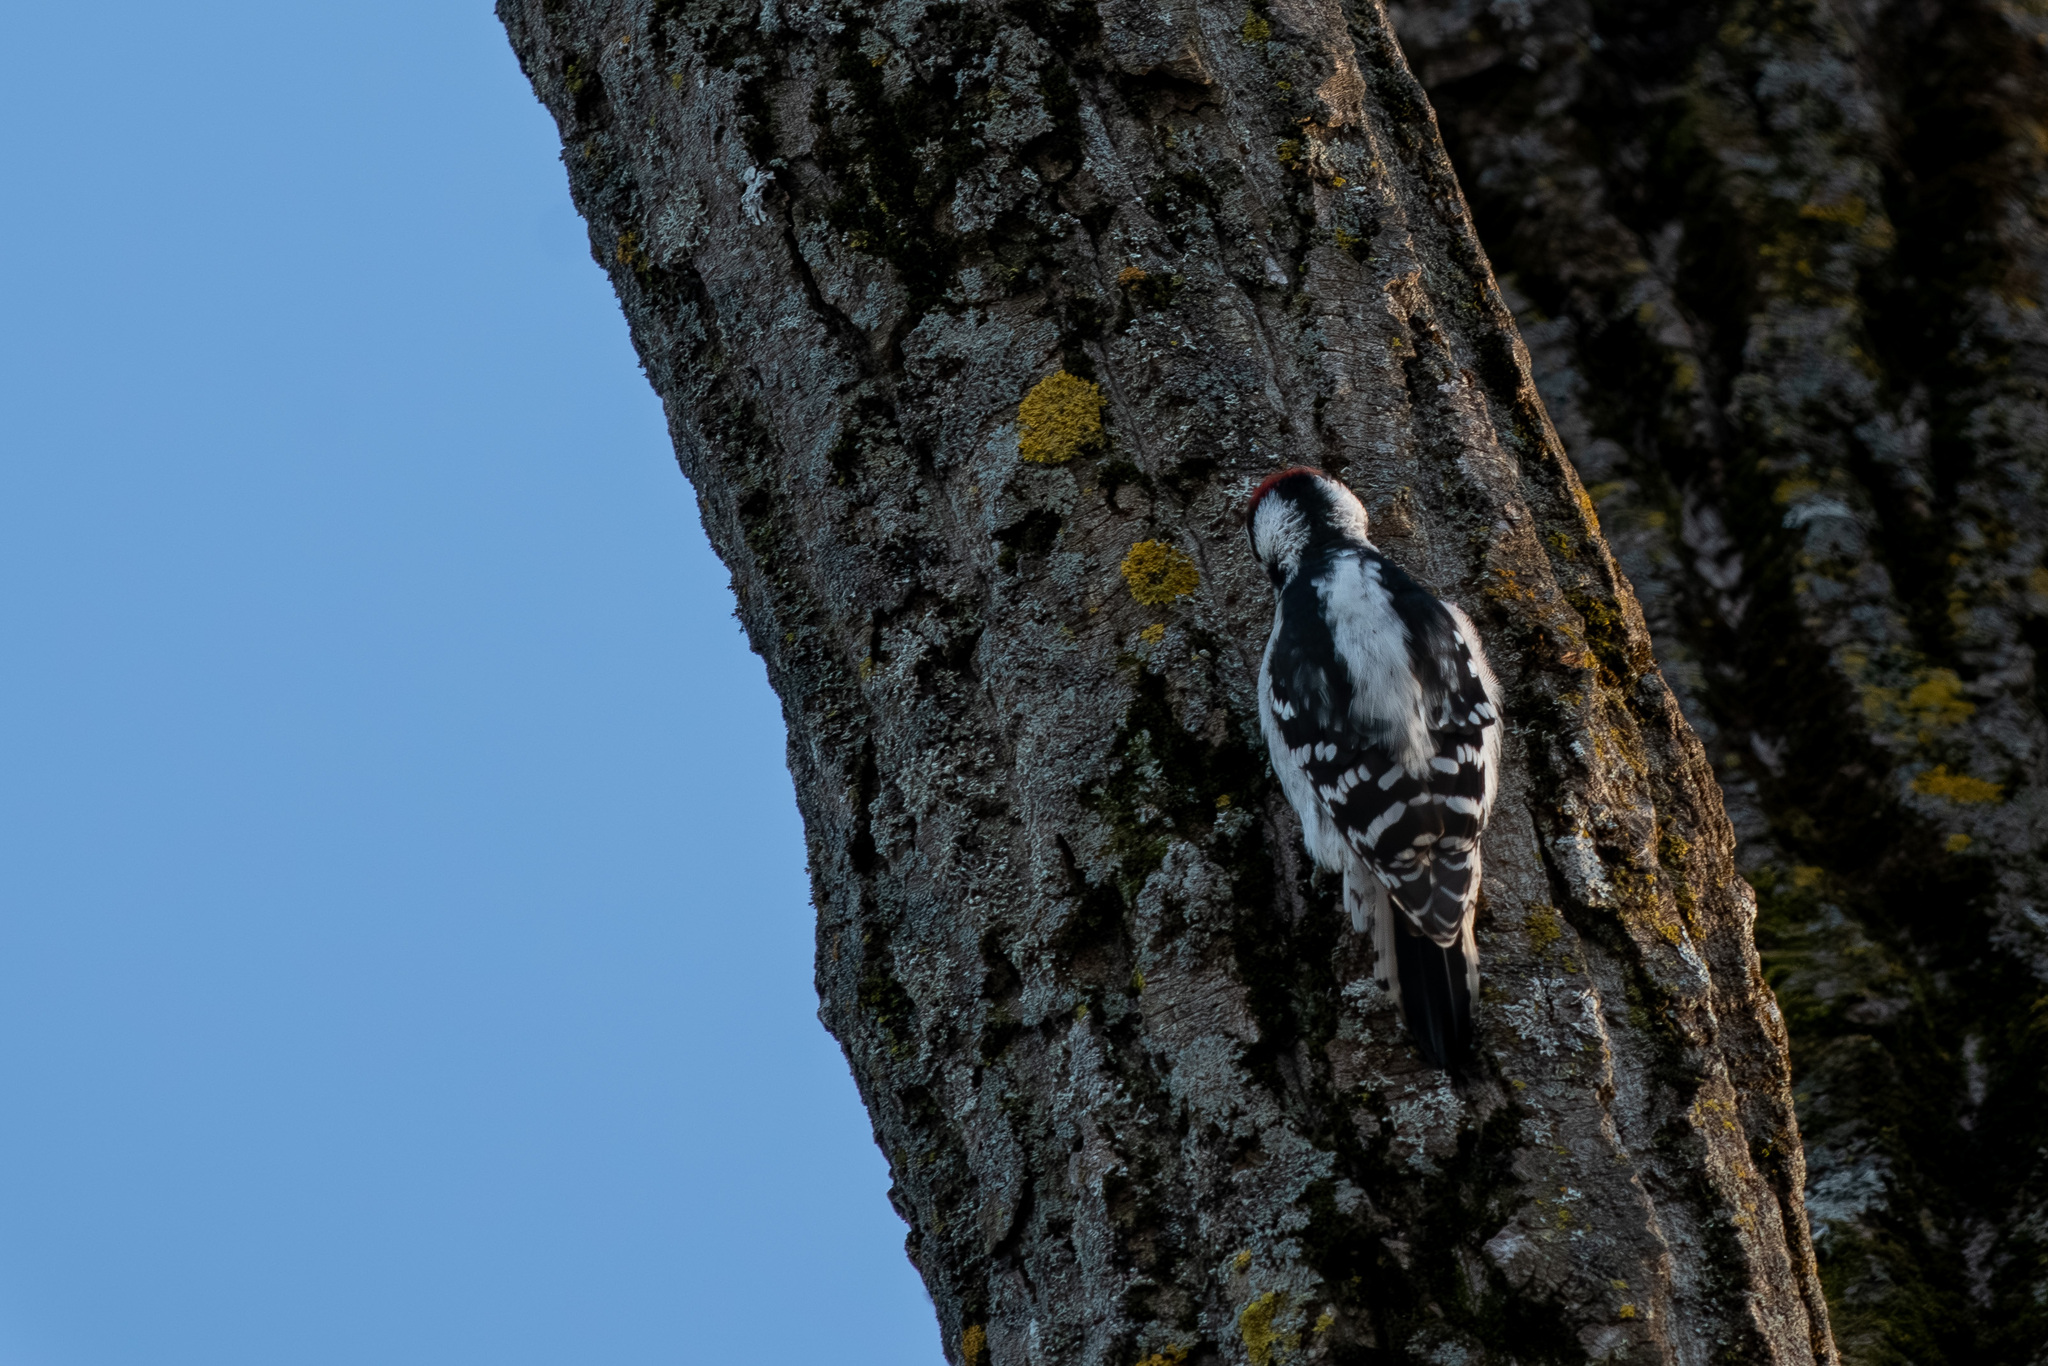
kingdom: Animalia
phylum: Chordata
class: Aves
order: Piciformes
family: Picidae
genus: Dryobates
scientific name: Dryobates pubescens
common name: Downy woodpecker
